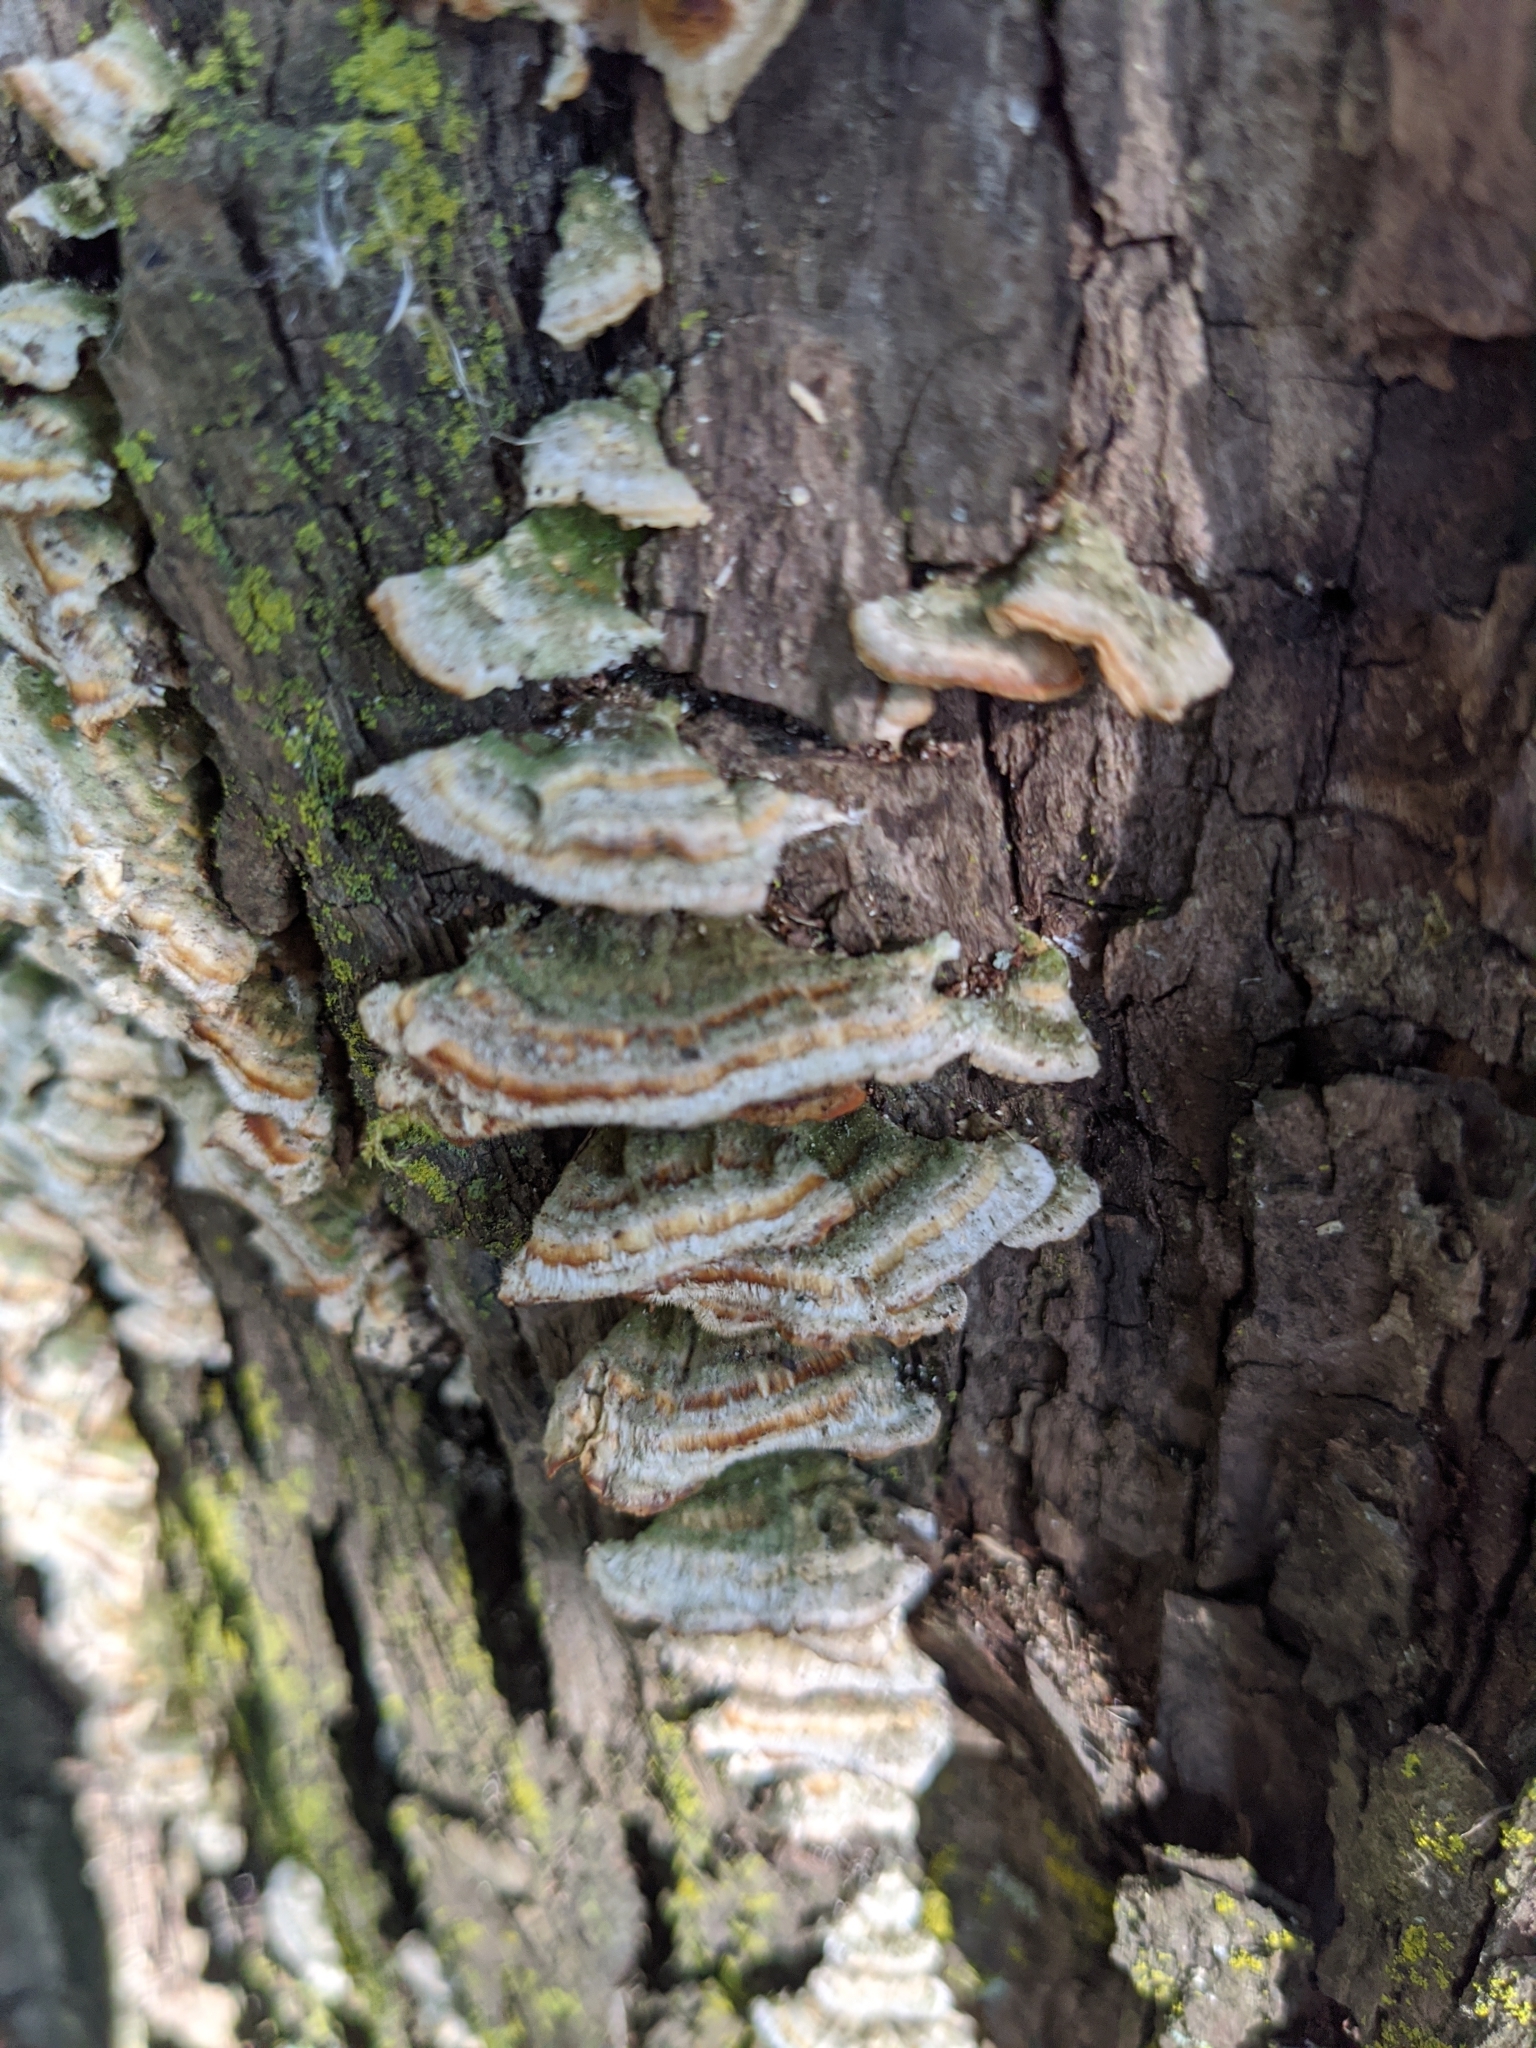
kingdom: Fungi
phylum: Basidiomycota
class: Agaricomycetes
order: Hymenochaetales
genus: Trichaptum
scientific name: Trichaptum biforme
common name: Violet-toothed polypore
